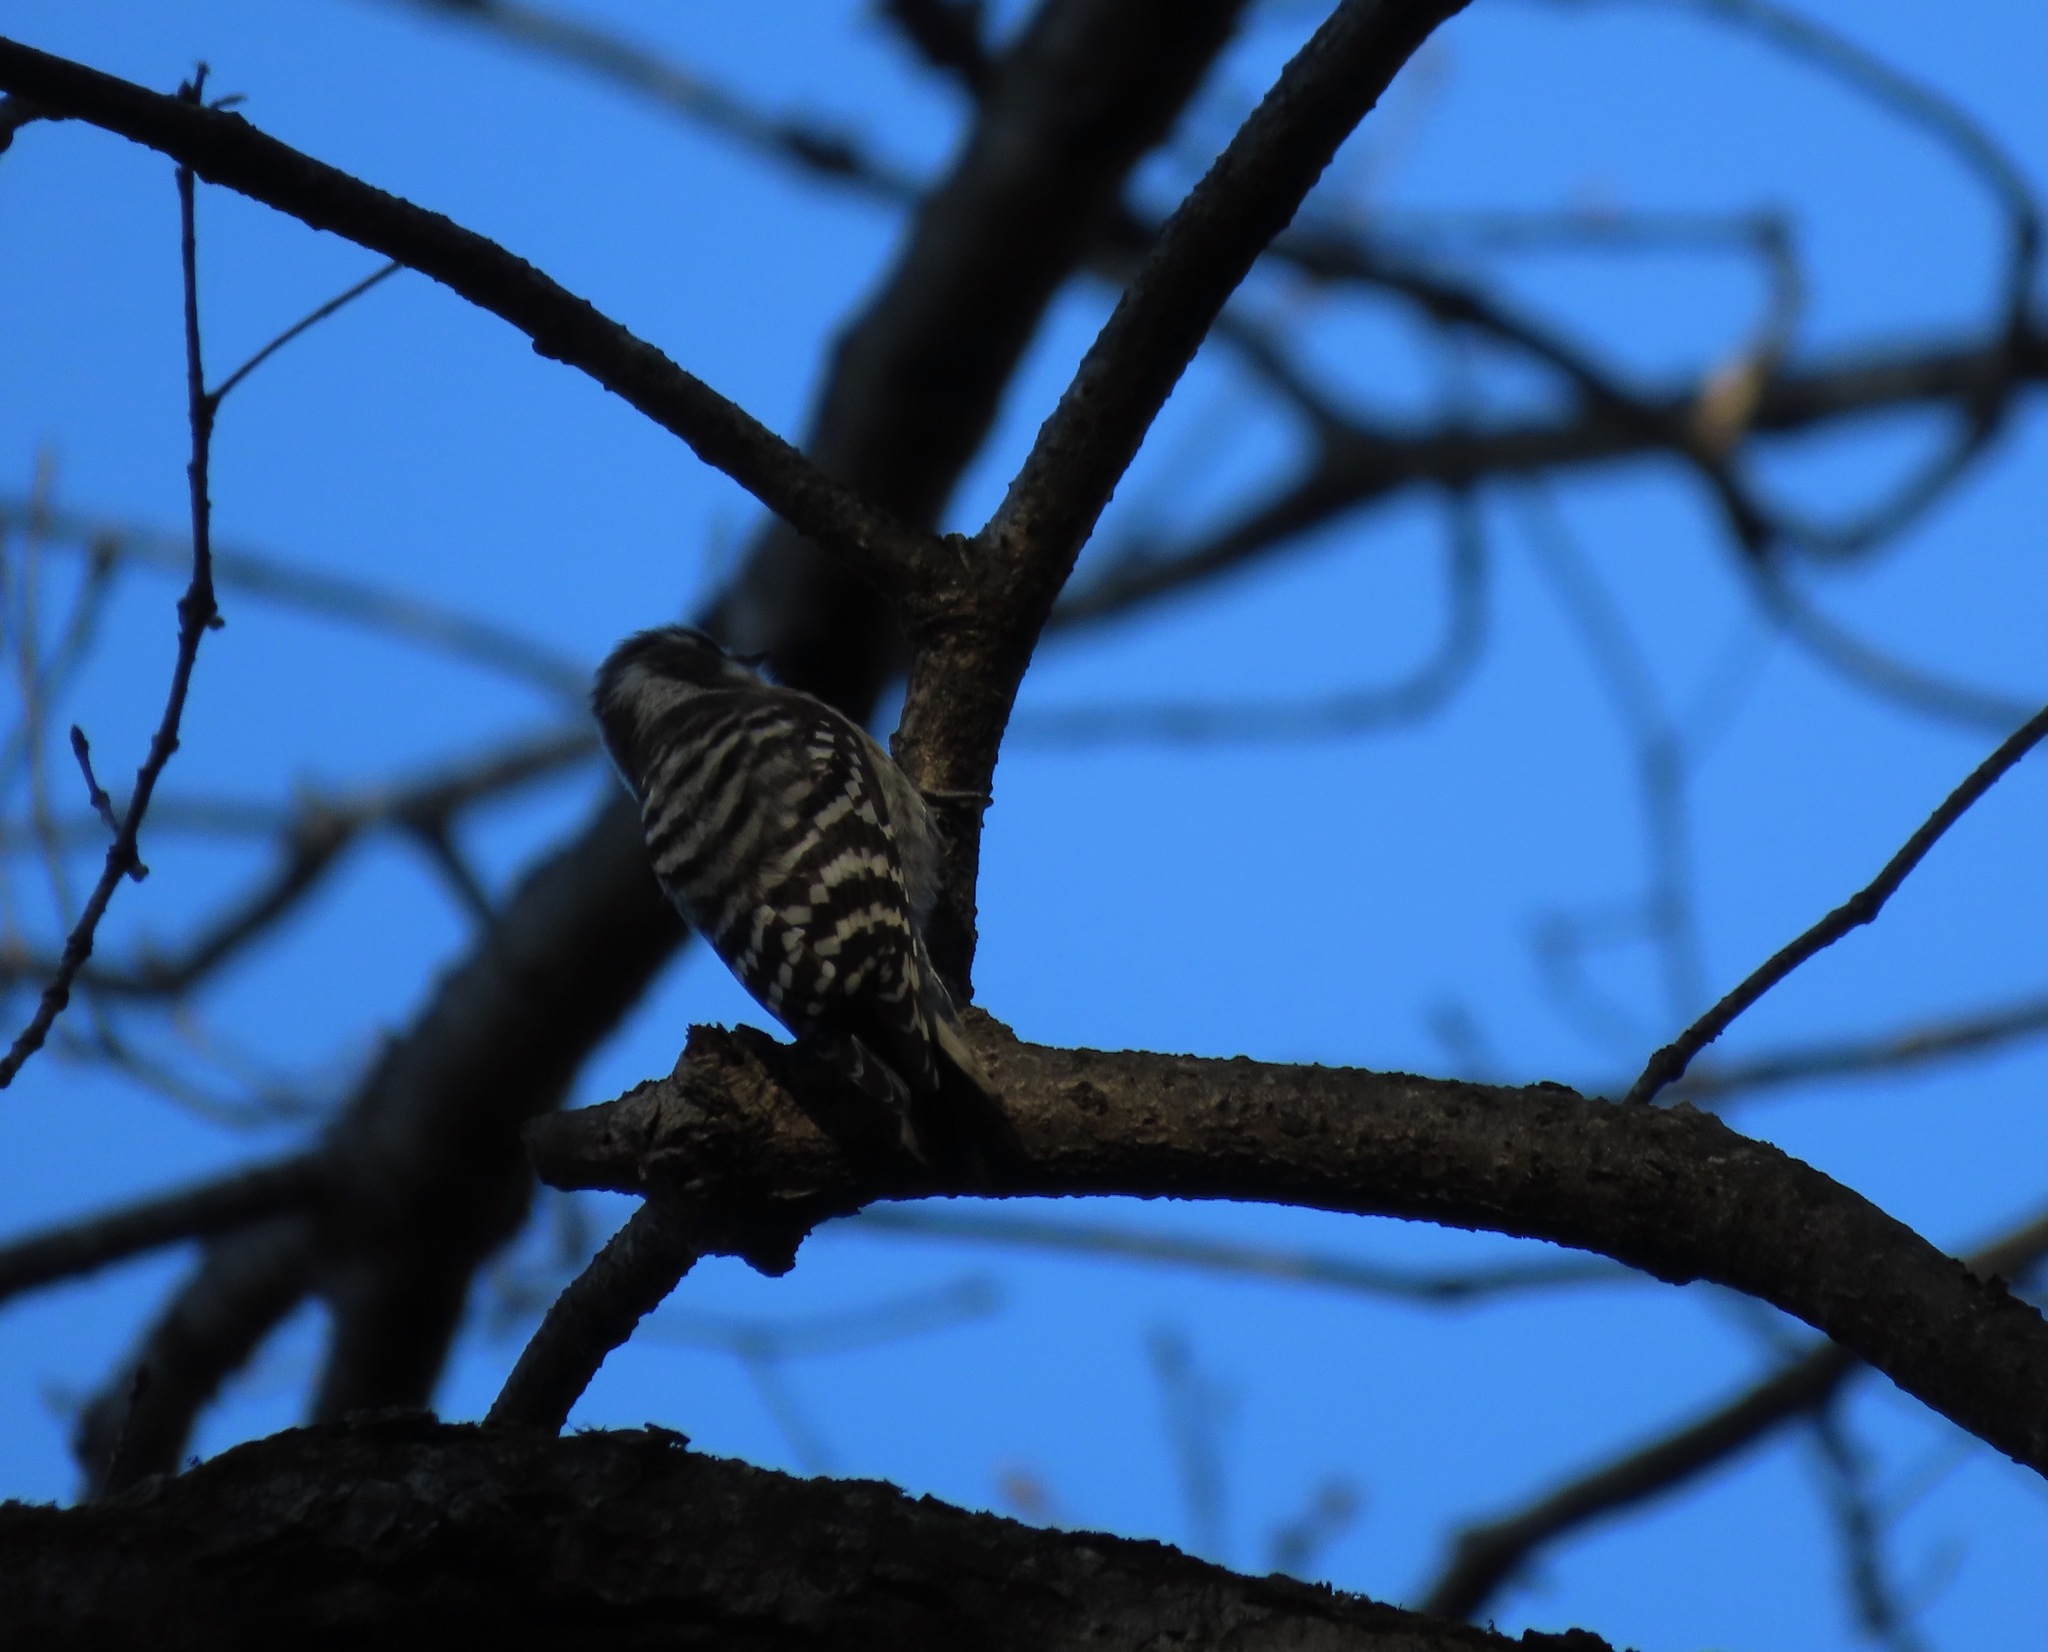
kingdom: Animalia
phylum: Chordata
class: Aves
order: Piciformes
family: Picidae
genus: Yungipicus
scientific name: Yungipicus kizuki
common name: Japanese pygmy woodpecker
